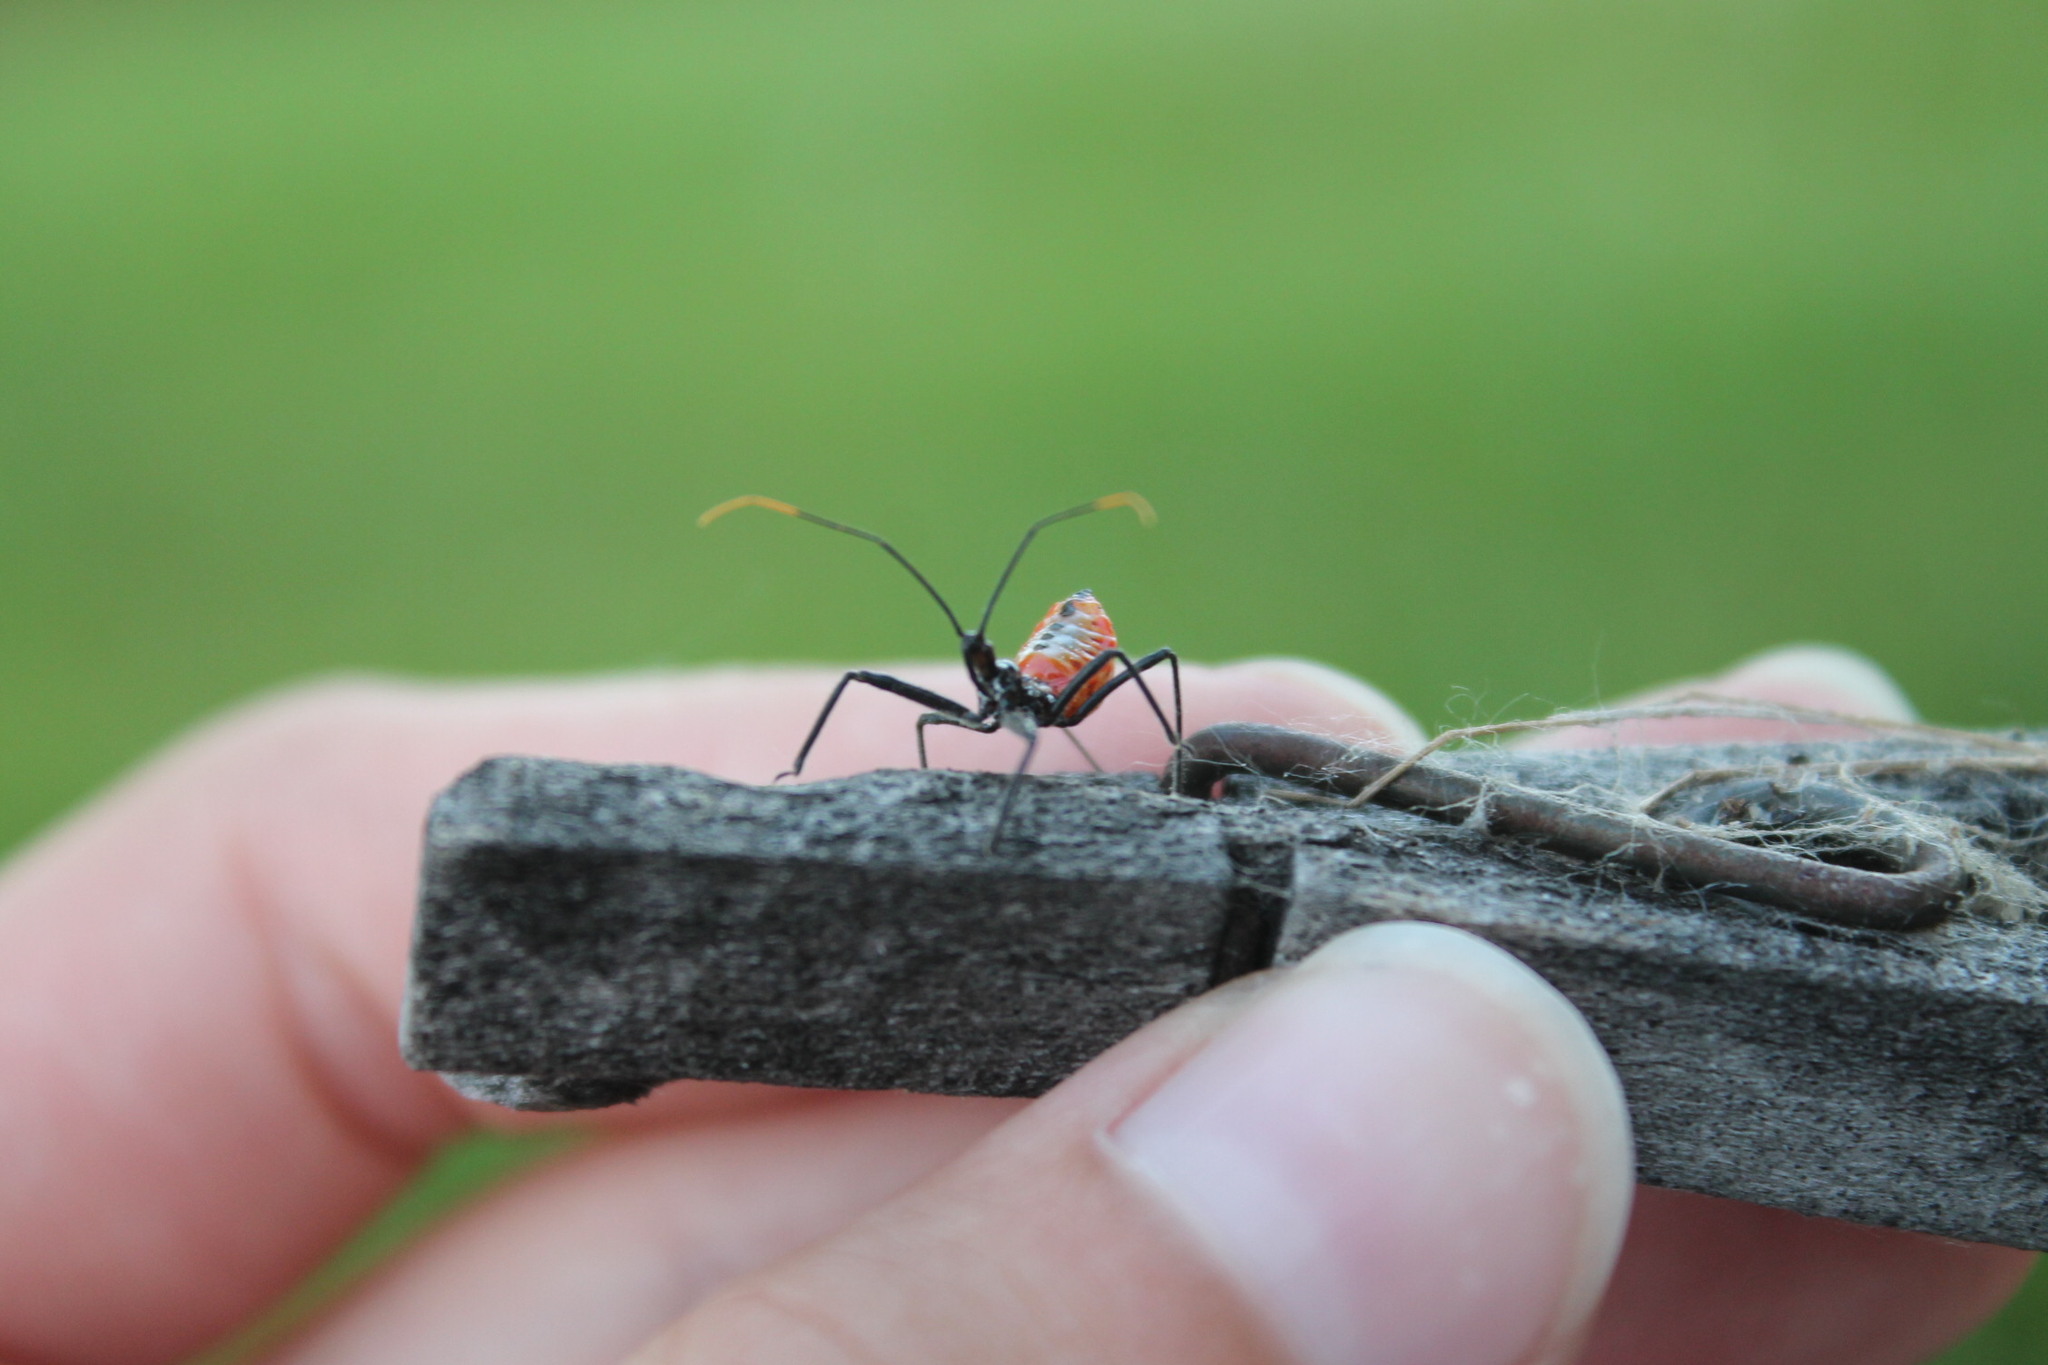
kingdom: Animalia
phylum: Arthropoda
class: Insecta
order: Hemiptera
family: Reduviidae
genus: Arilus
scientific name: Arilus cristatus
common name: North american wheel bug
